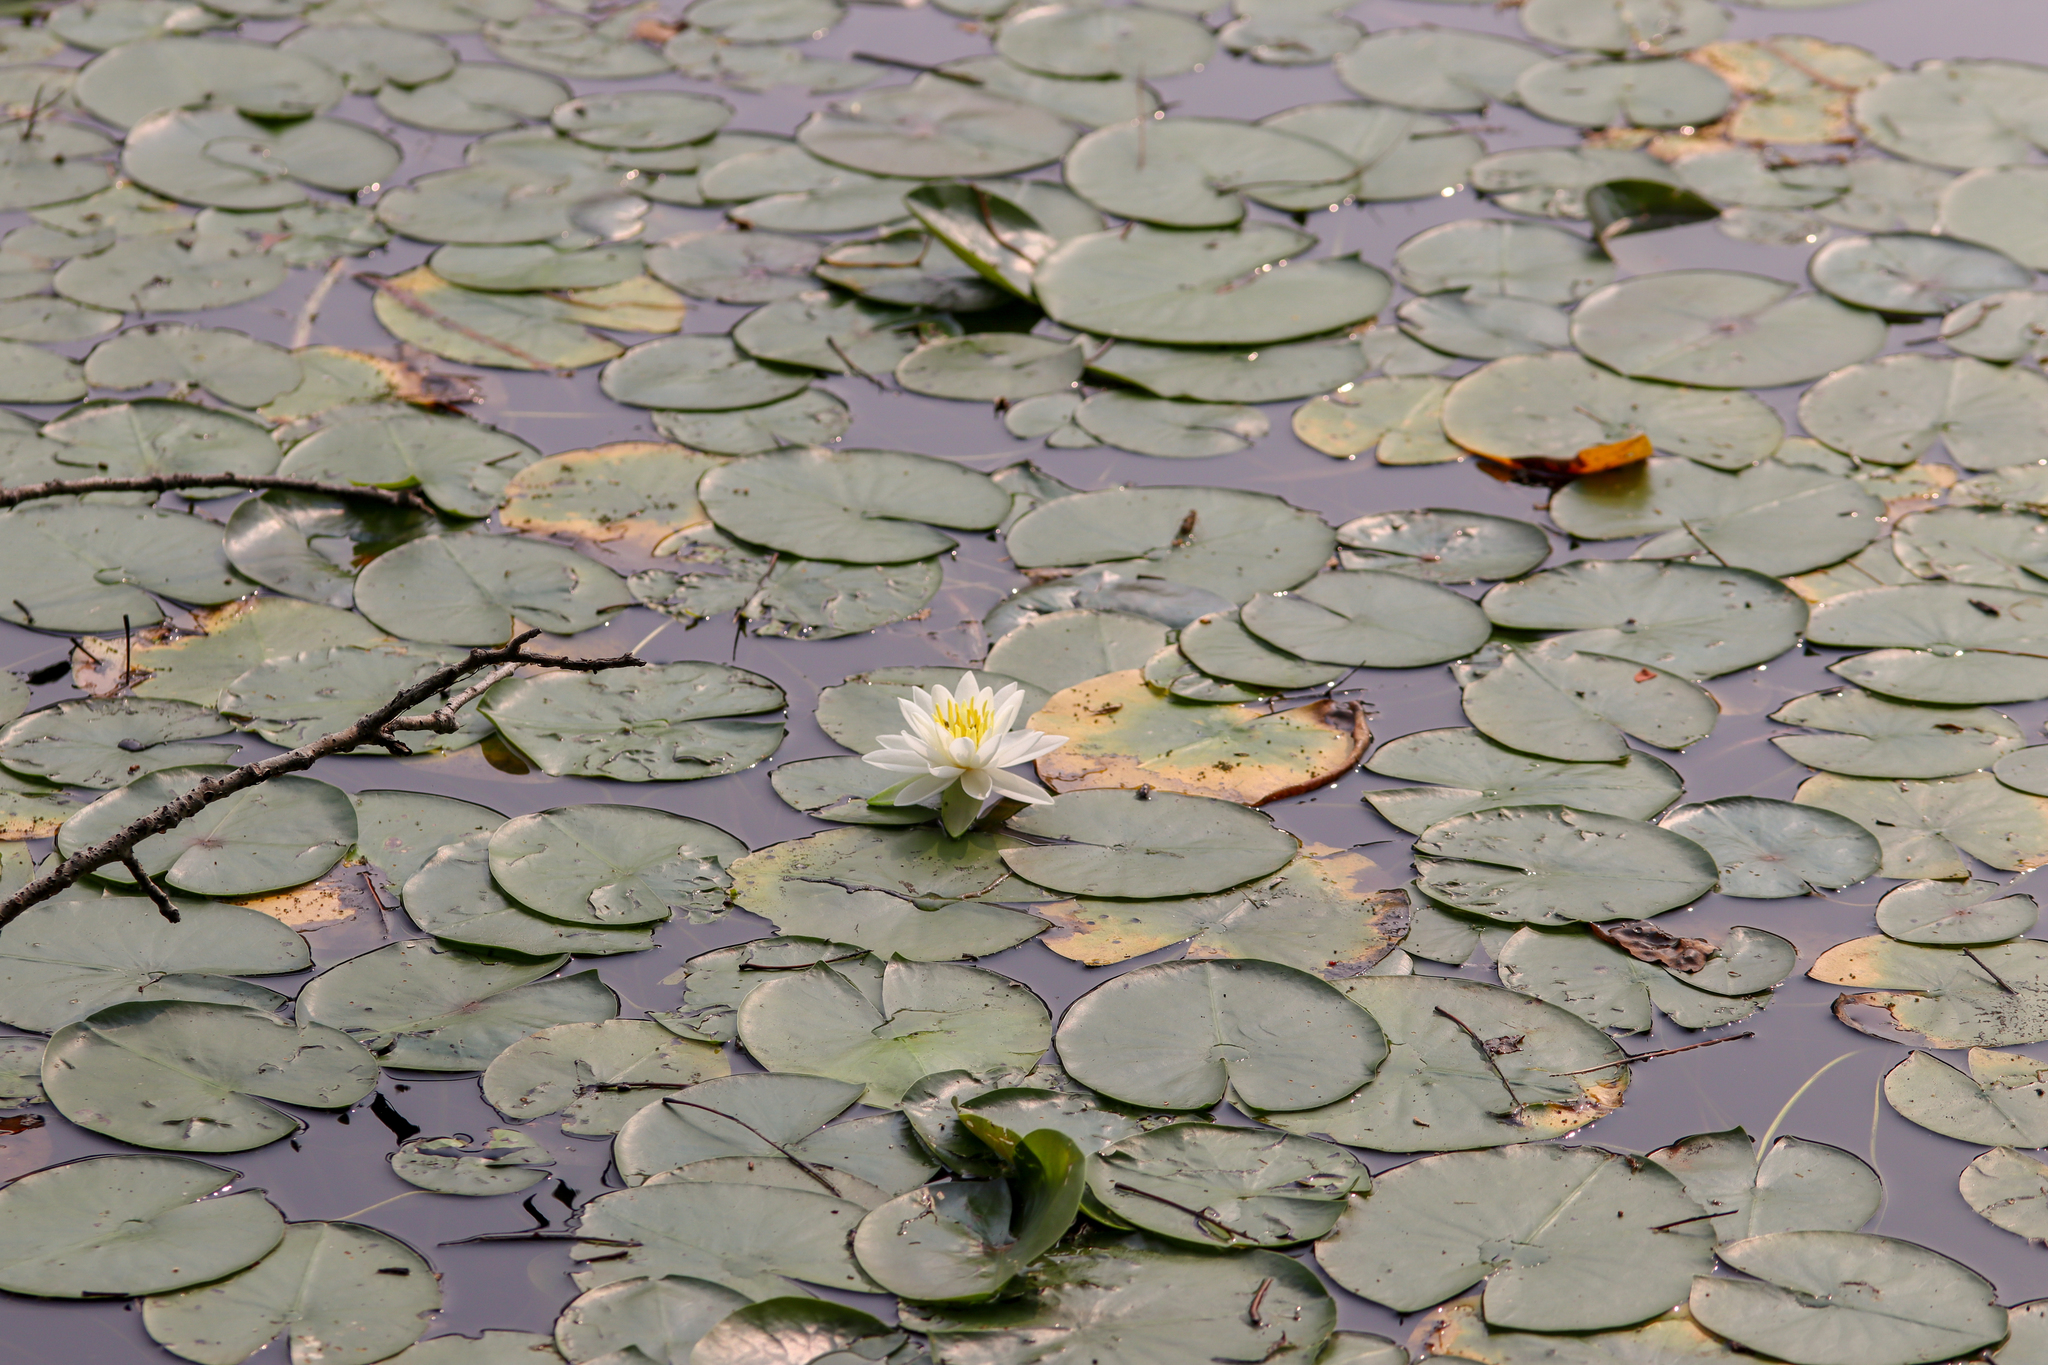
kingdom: Plantae
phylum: Tracheophyta
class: Magnoliopsida
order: Nymphaeales
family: Nymphaeaceae
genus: Nymphaea
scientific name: Nymphaea odorata
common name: Fragrant water-lily
